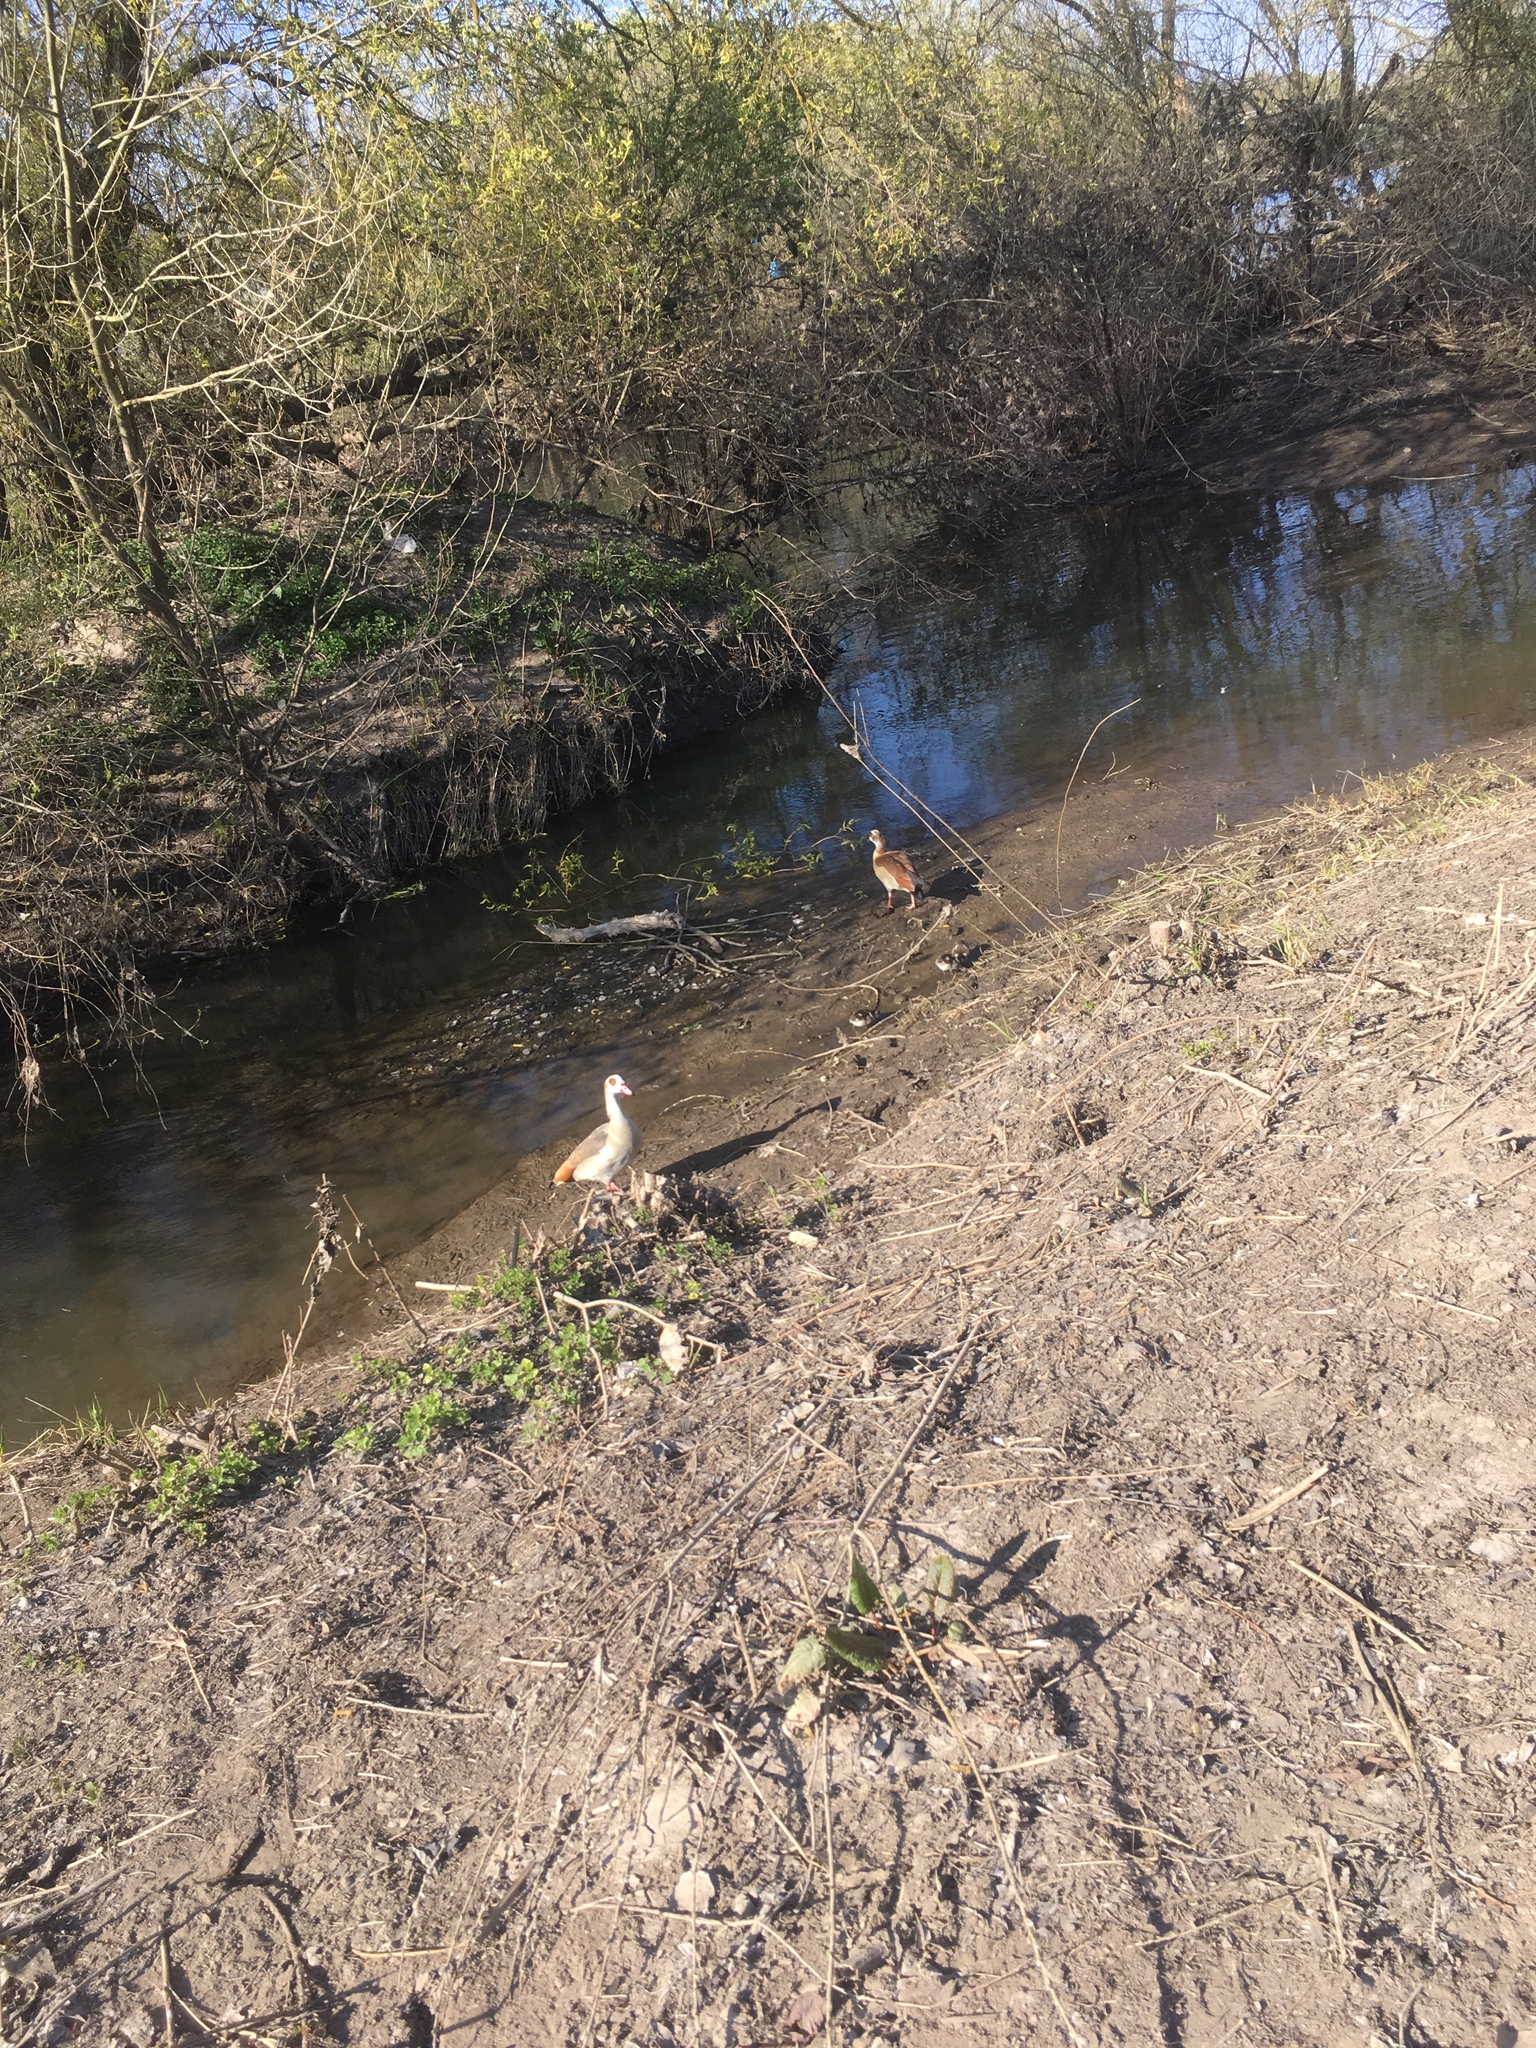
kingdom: Animalia
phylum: Chordata
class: Aves
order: Anseriformes
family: Anatidae
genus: Alopochen
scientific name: Alopochen aegyptiaca
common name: Egyptian goose
